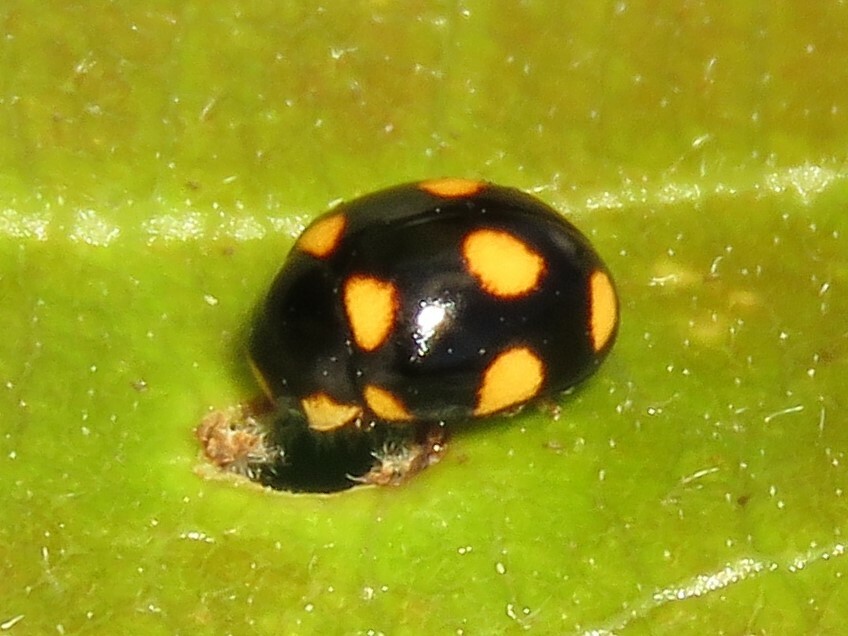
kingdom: Animalia
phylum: Arthropoda
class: Insecta
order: Coleoptera
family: Coccinellidae
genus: Brachiacantha
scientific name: Brachiacantha ursina
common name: Ursine spurleg lady beetle
